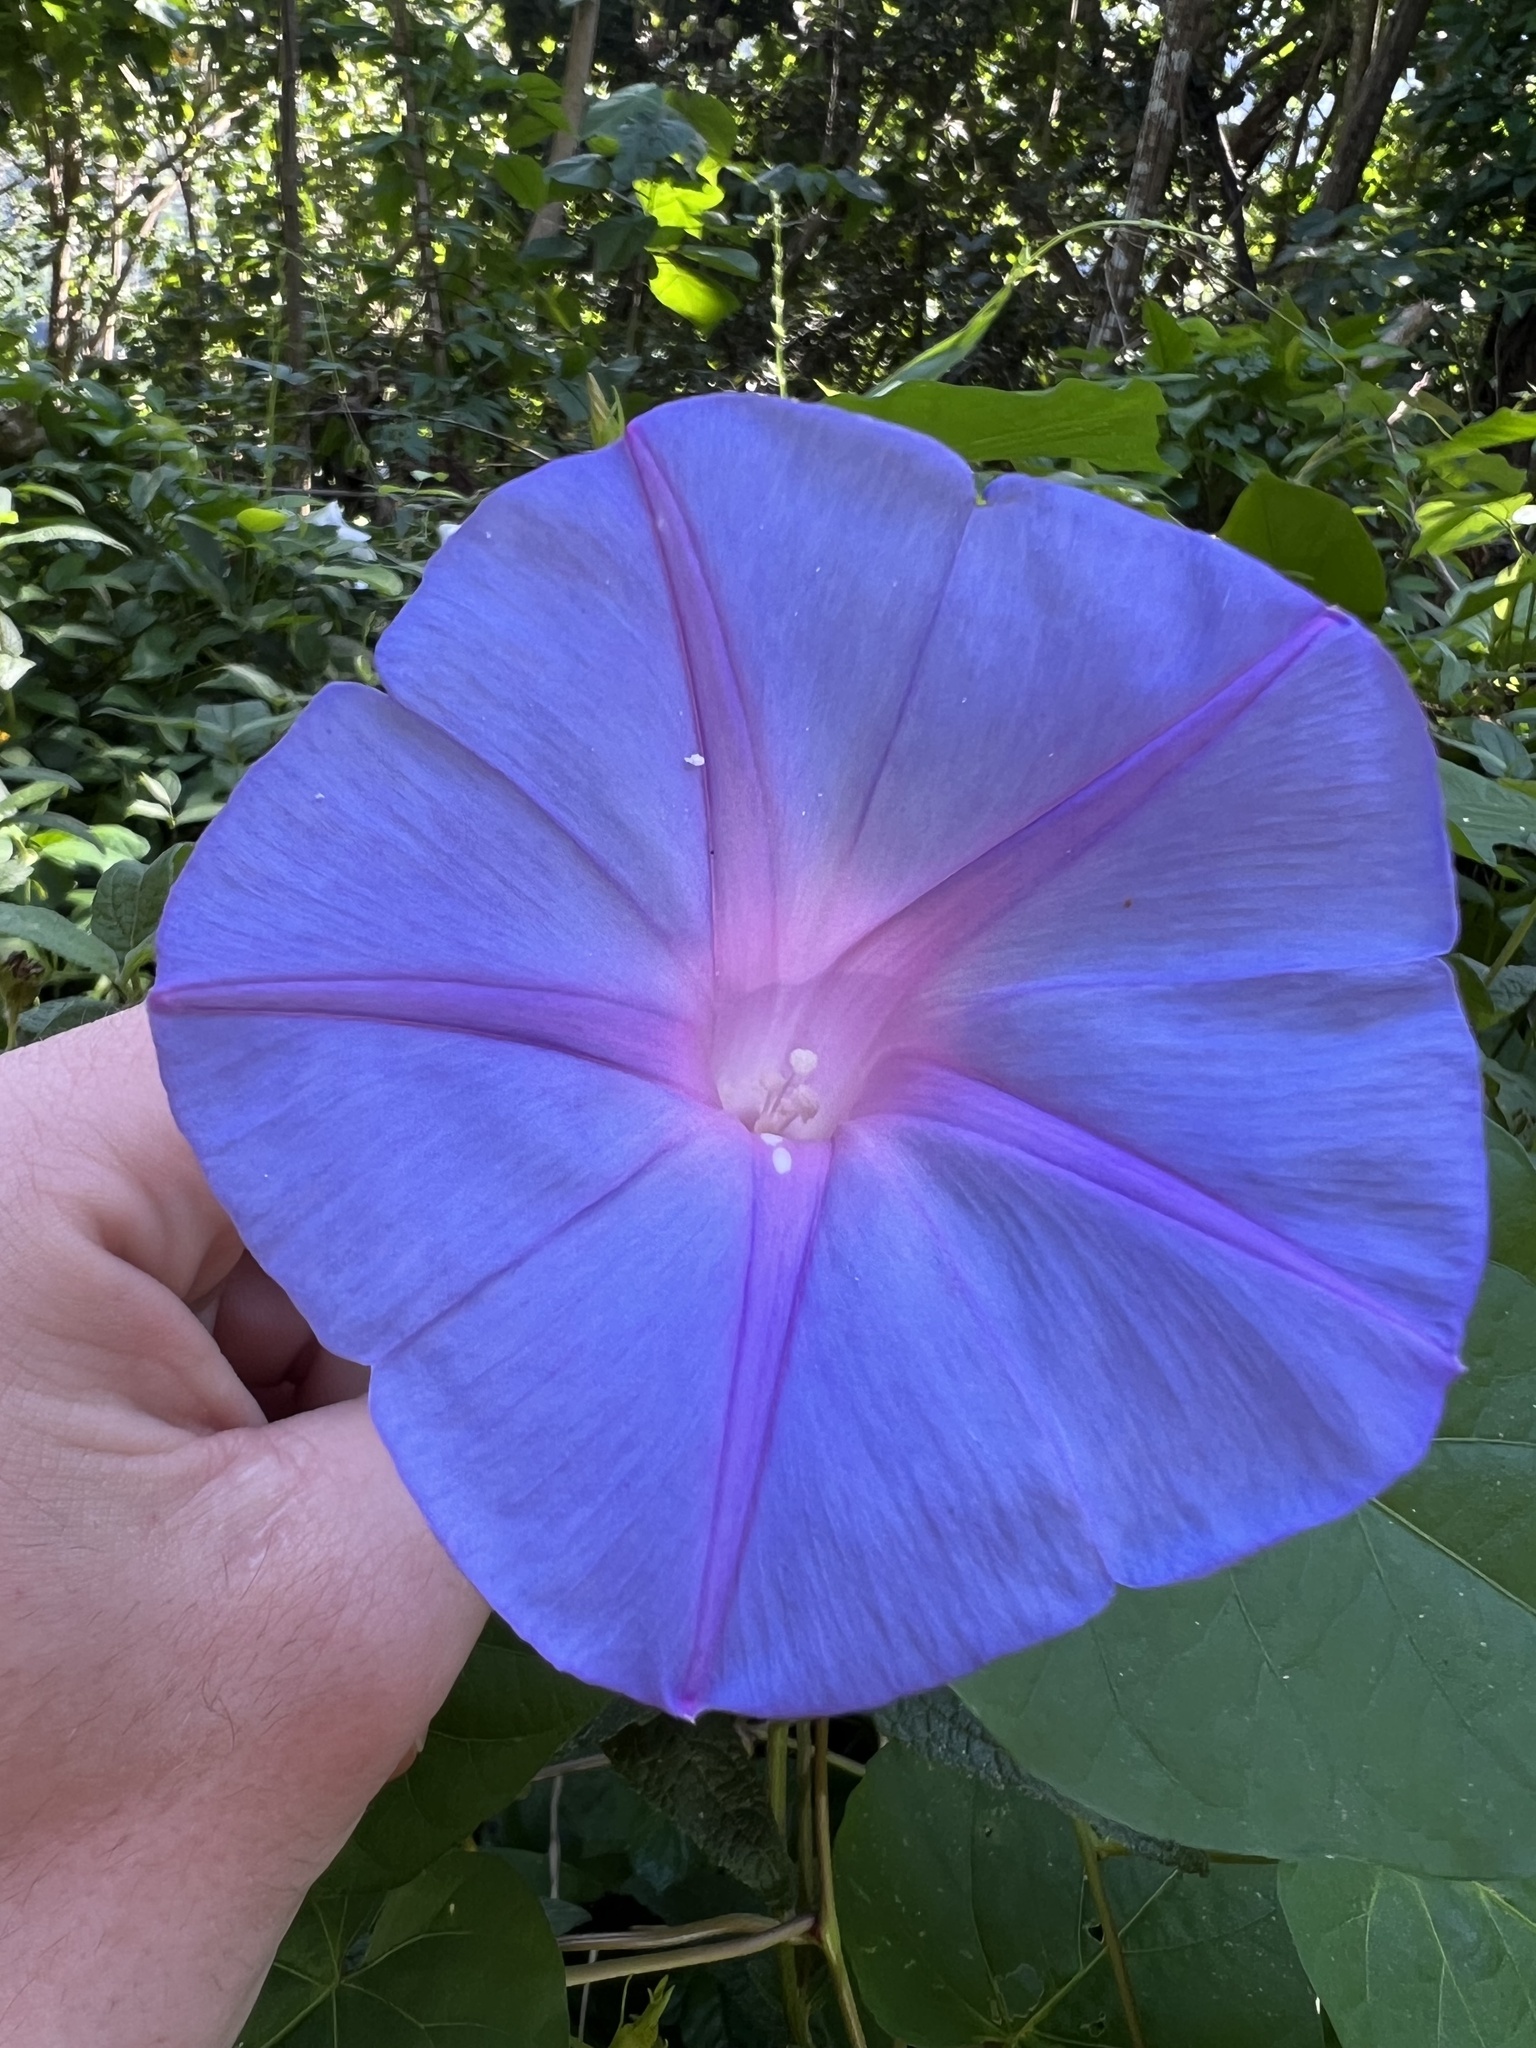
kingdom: Plantae
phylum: Tracheophyta
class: Magnoliopsida
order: Solanales
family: Convolvulaceae
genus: Ipomoea
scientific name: Ipomoea indica
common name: Blue dawnflower
